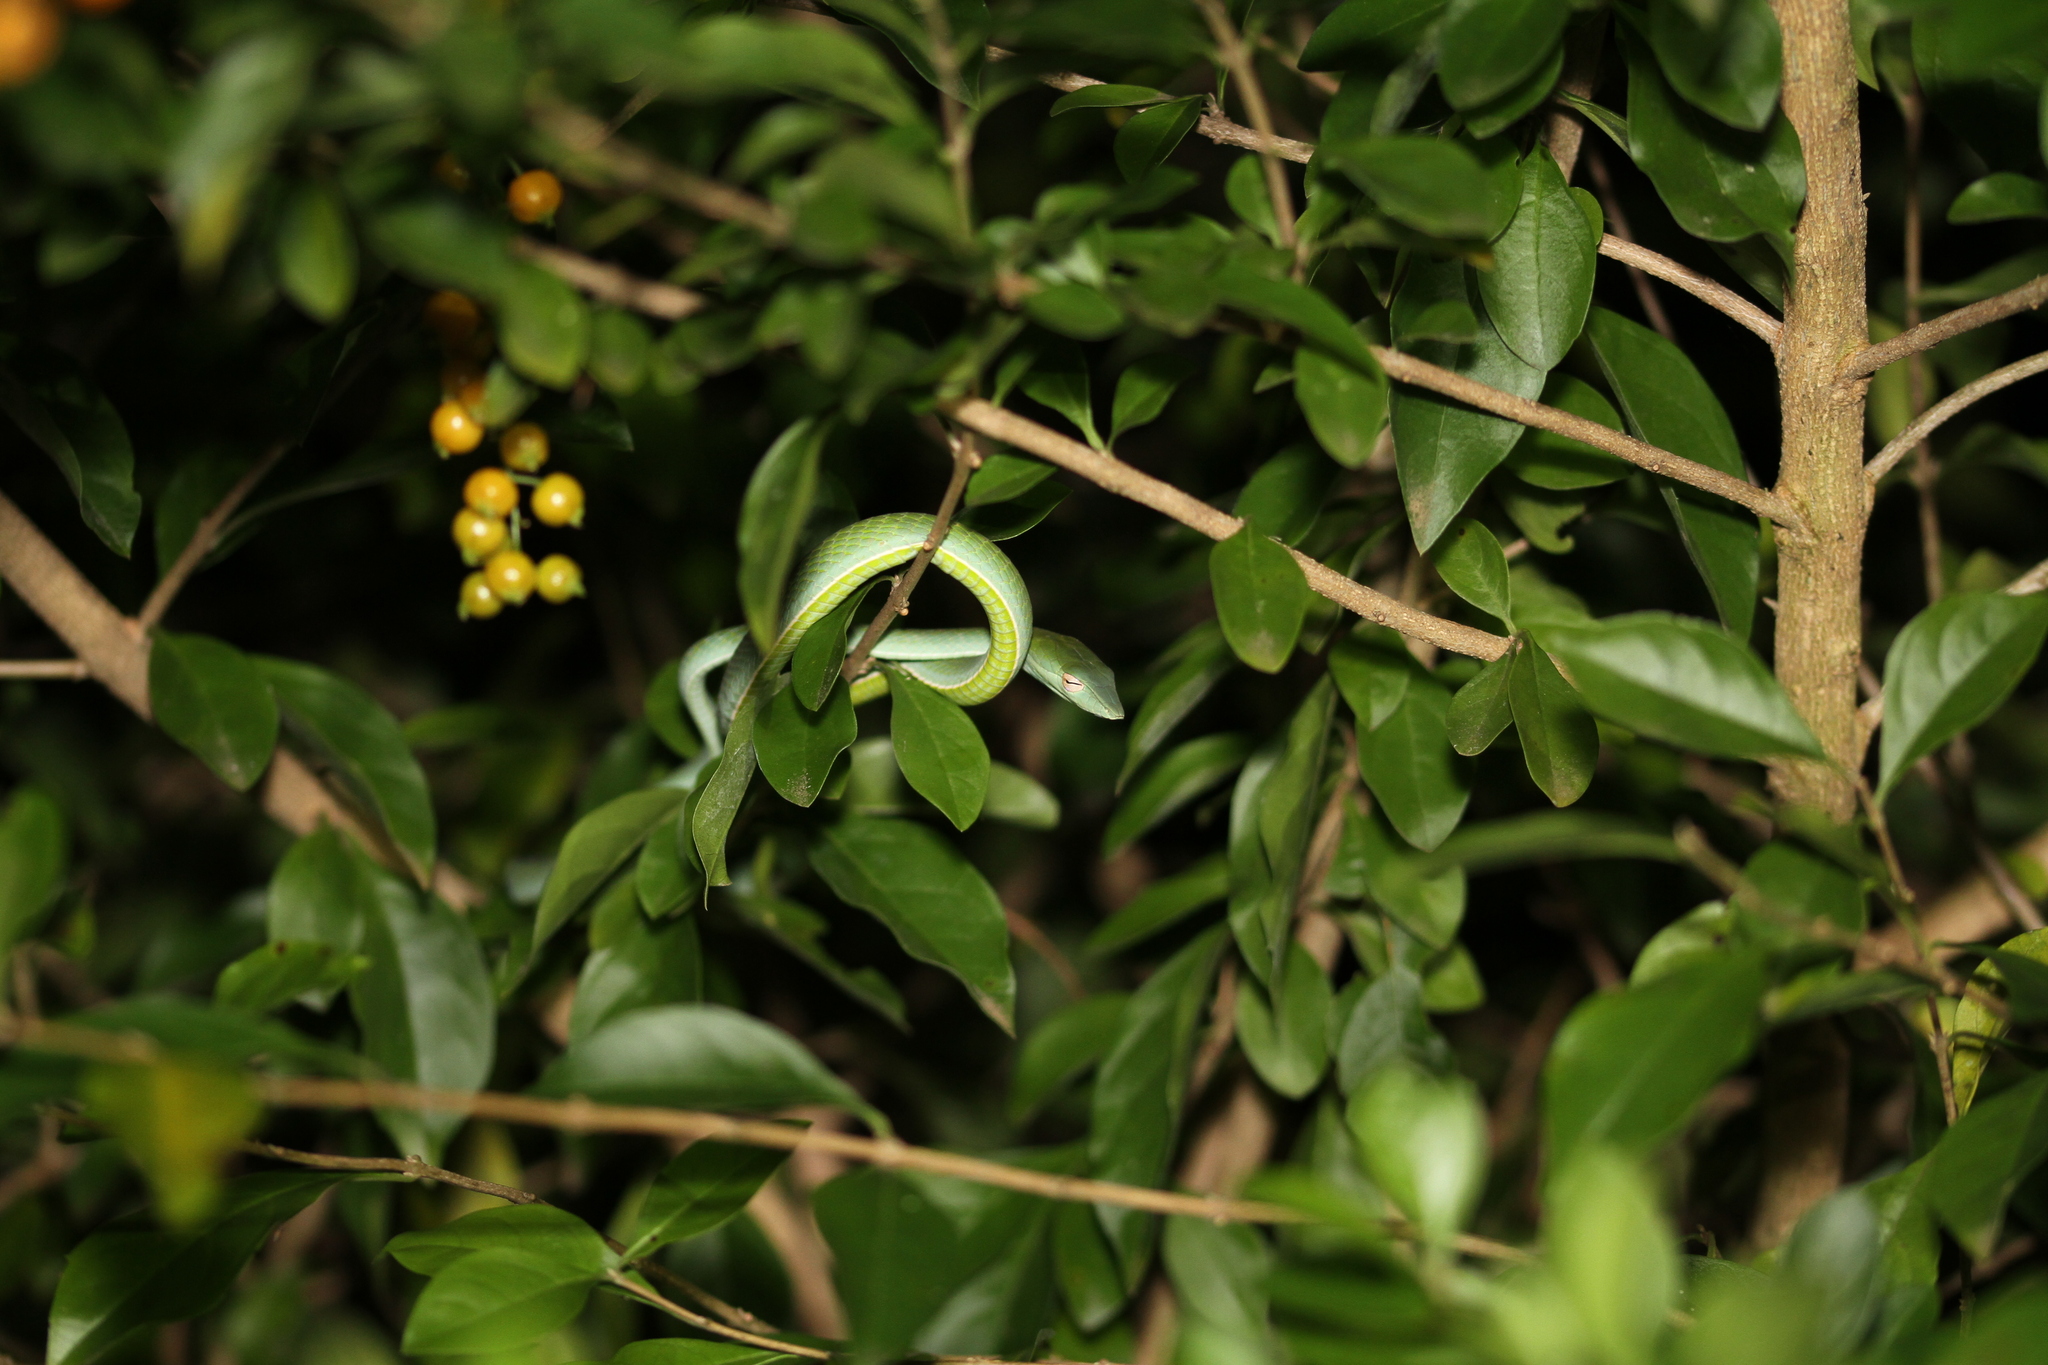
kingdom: Animalia
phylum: Chordata
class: Squamata
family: Colubridae
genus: Ahaetulla
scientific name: Ahaetulla prasina
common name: Oriental whip snake
